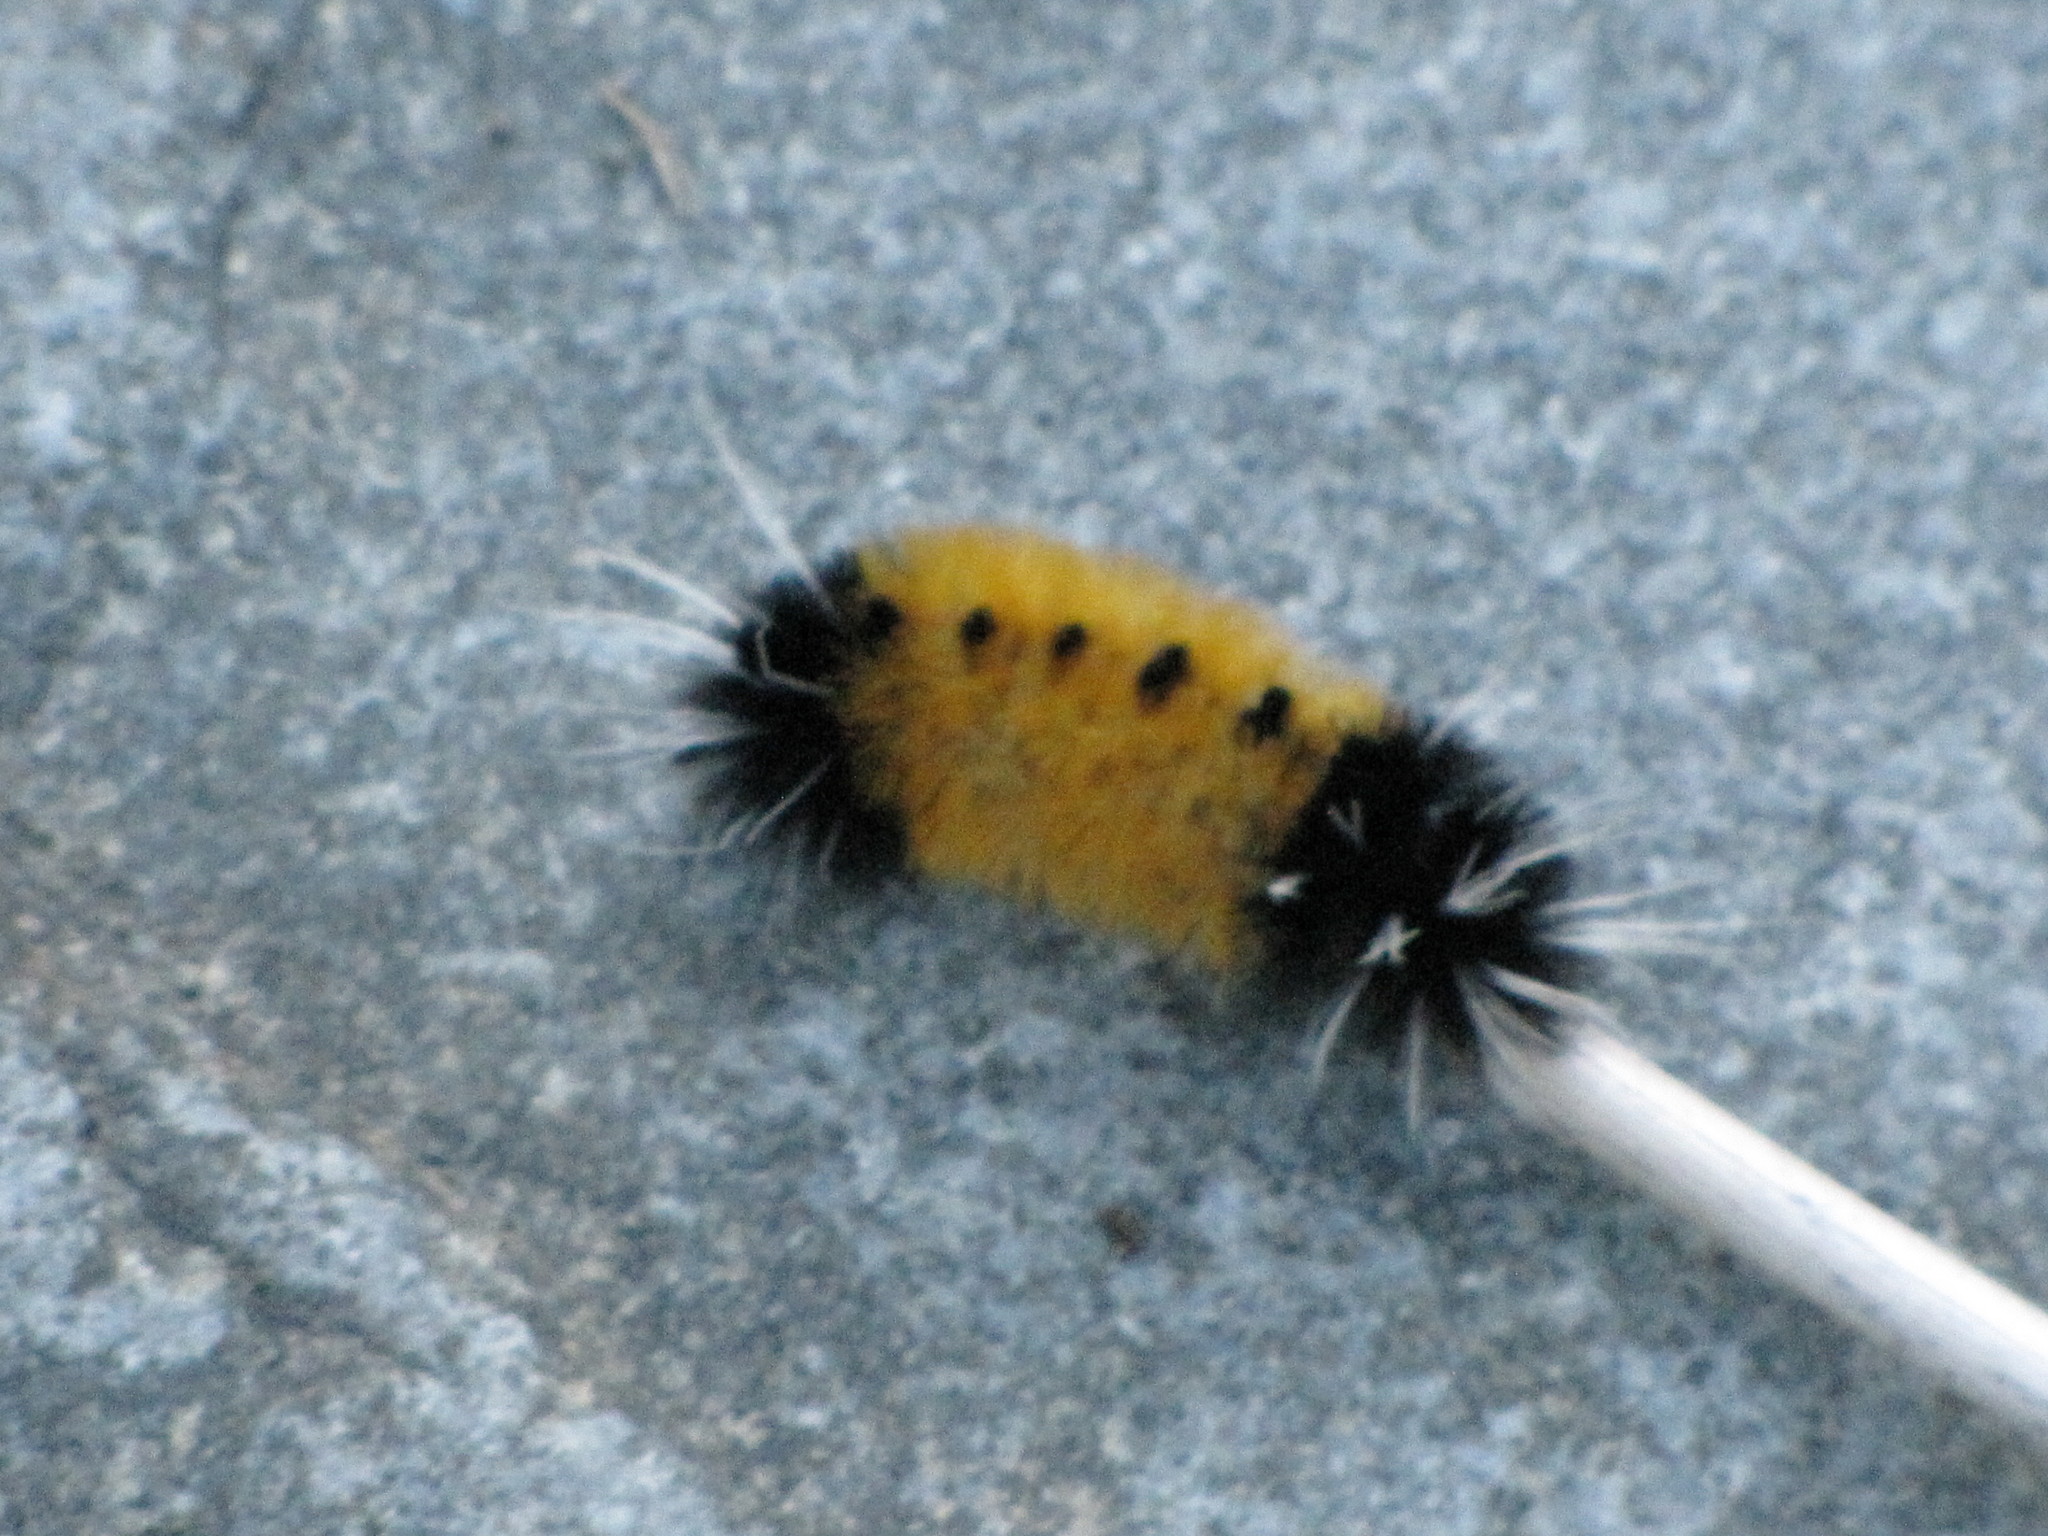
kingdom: Animalia
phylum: Arthropoda
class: Insecta
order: Lepidoptera
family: Erebidae
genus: Lophocampa
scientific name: Lophocampa maculata
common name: Spotted tussock moth
